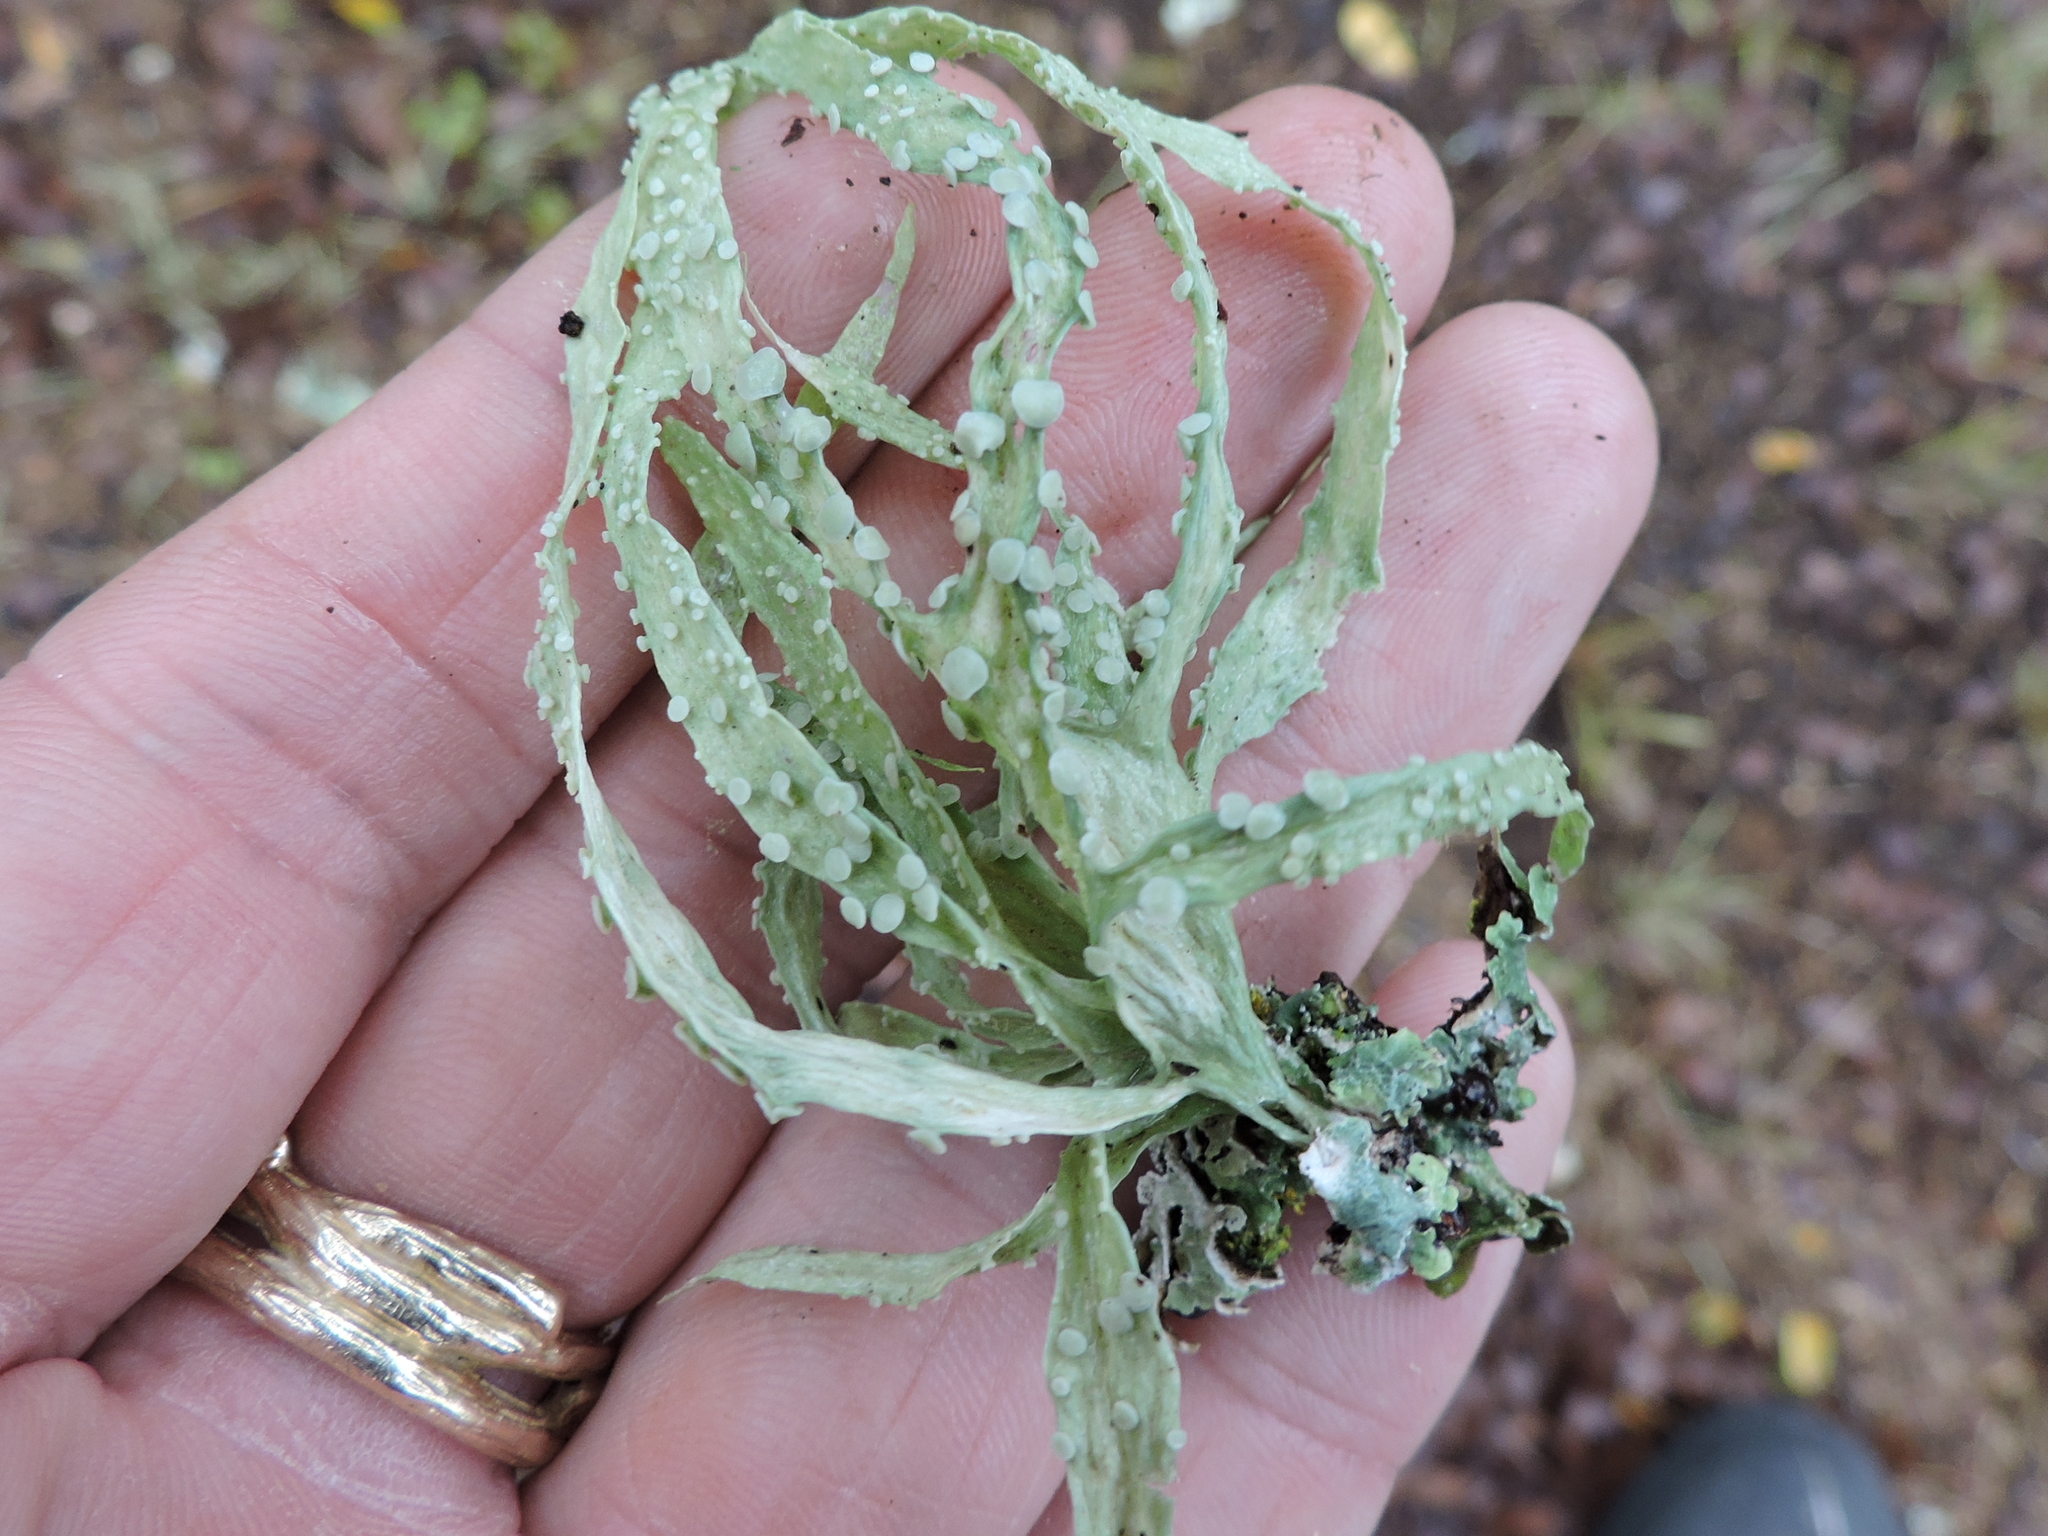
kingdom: Fungi
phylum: Ascomycota
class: Lecanoromycetes
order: Lecanorales
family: Ramalinaceae
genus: Ramalina
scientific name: Ramalina celastri
